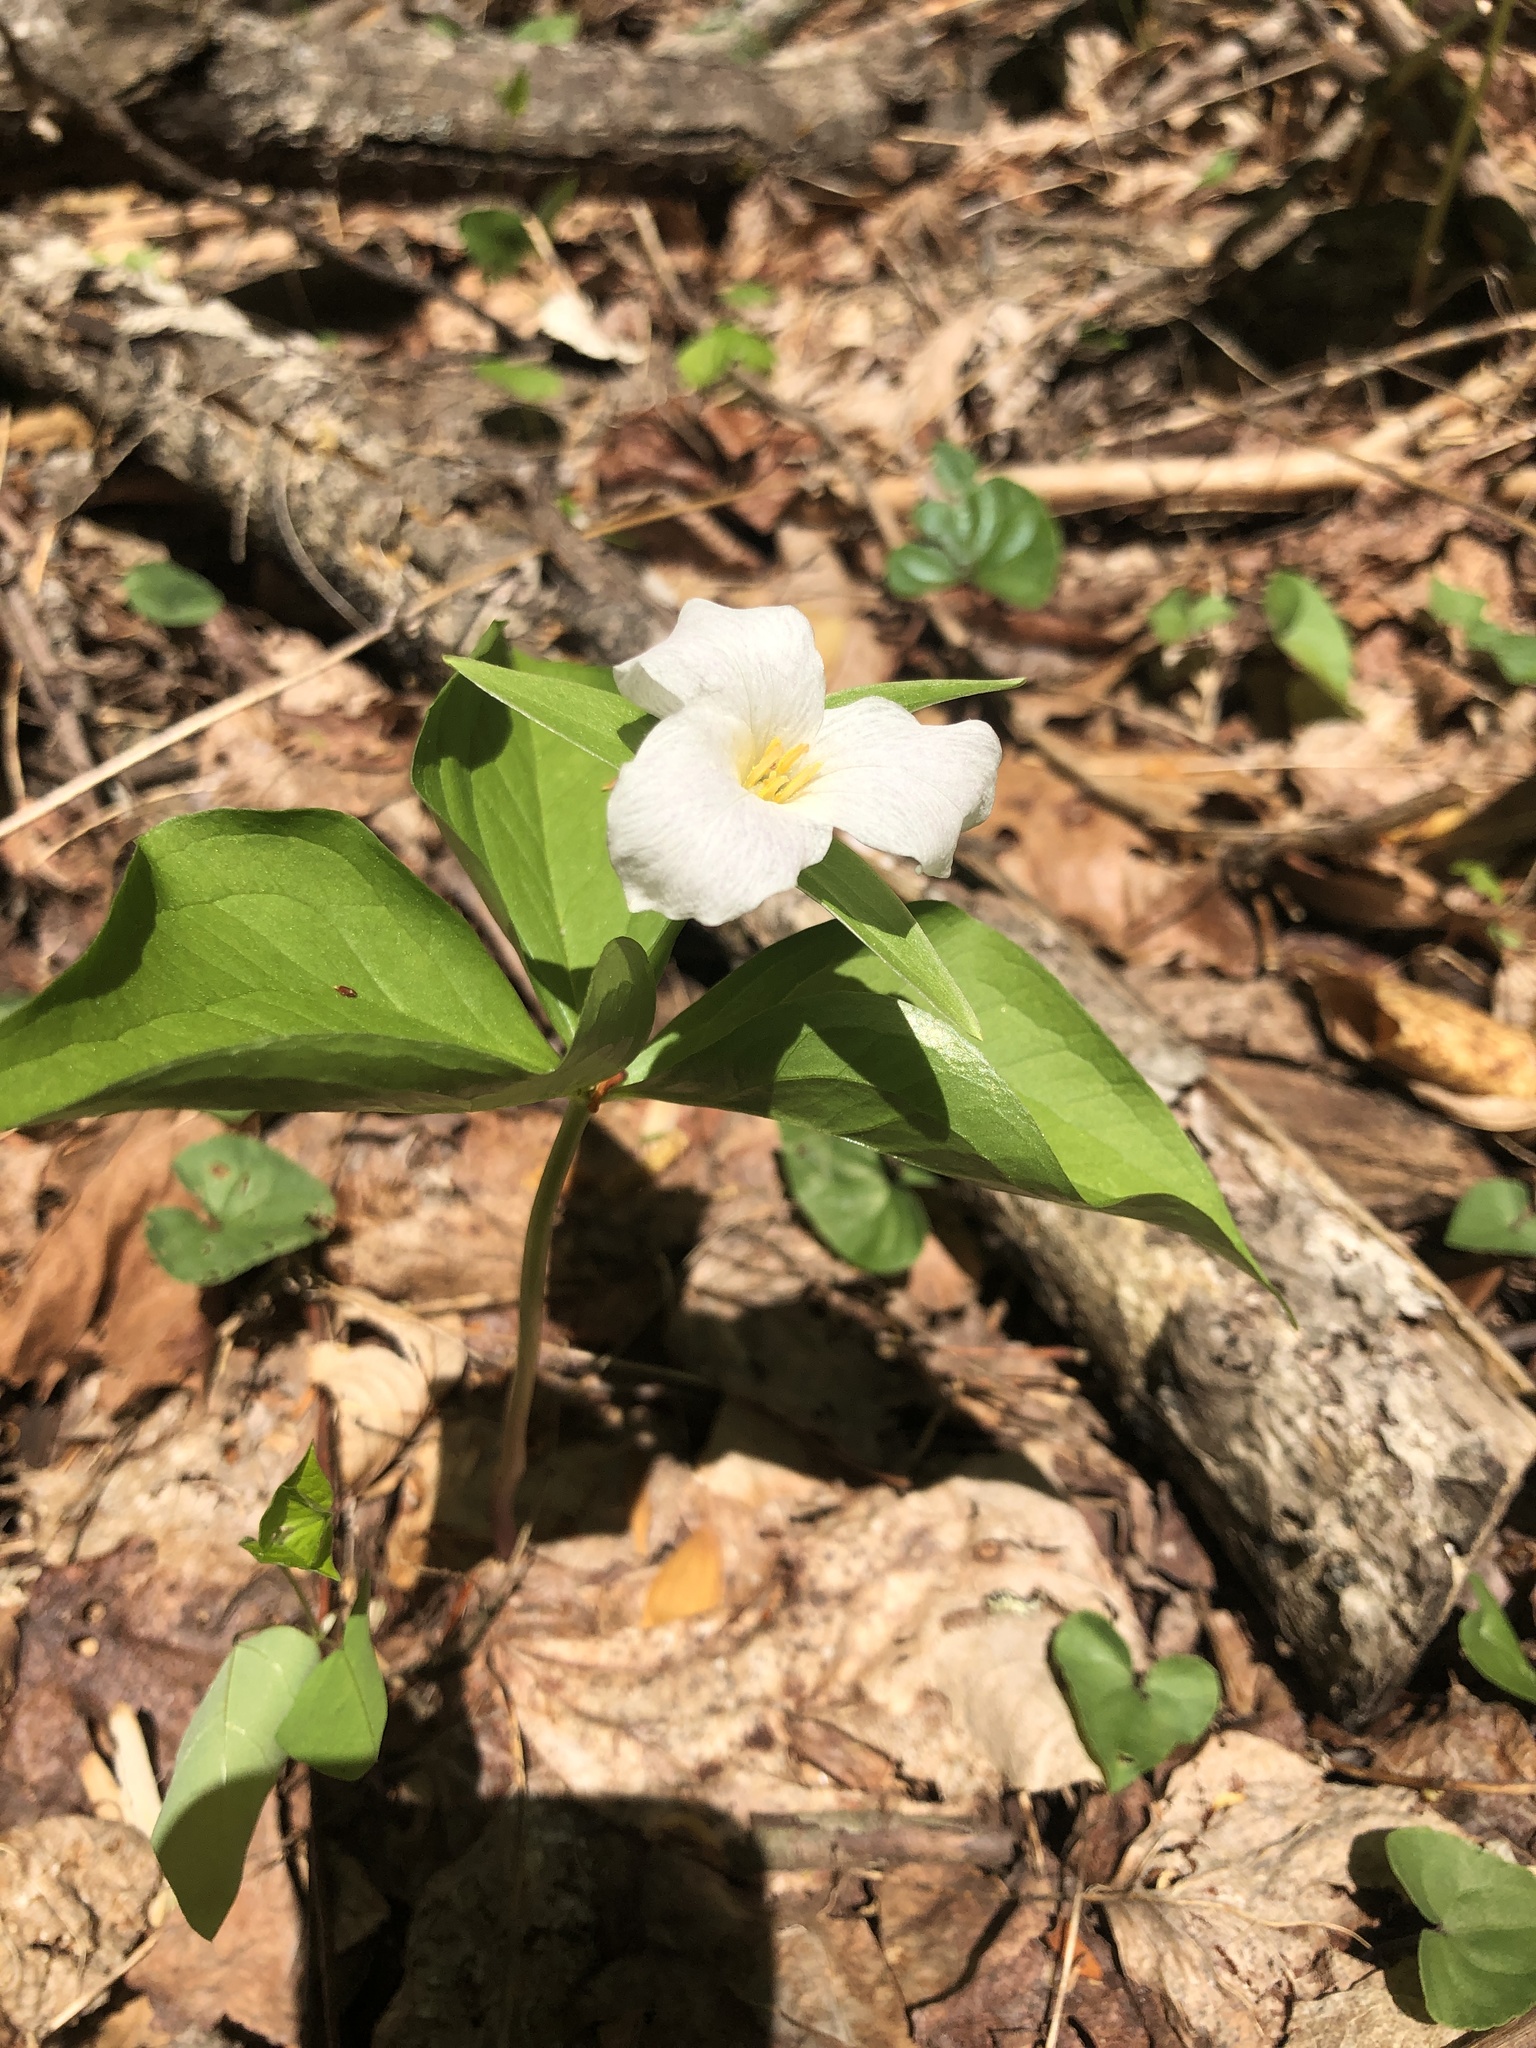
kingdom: Plantae
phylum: Tracheophyta
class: Liliopsida
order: Liliales
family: Melanthiaceae
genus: Trillium
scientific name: Trillium grandiflorum
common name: Great white trillium
